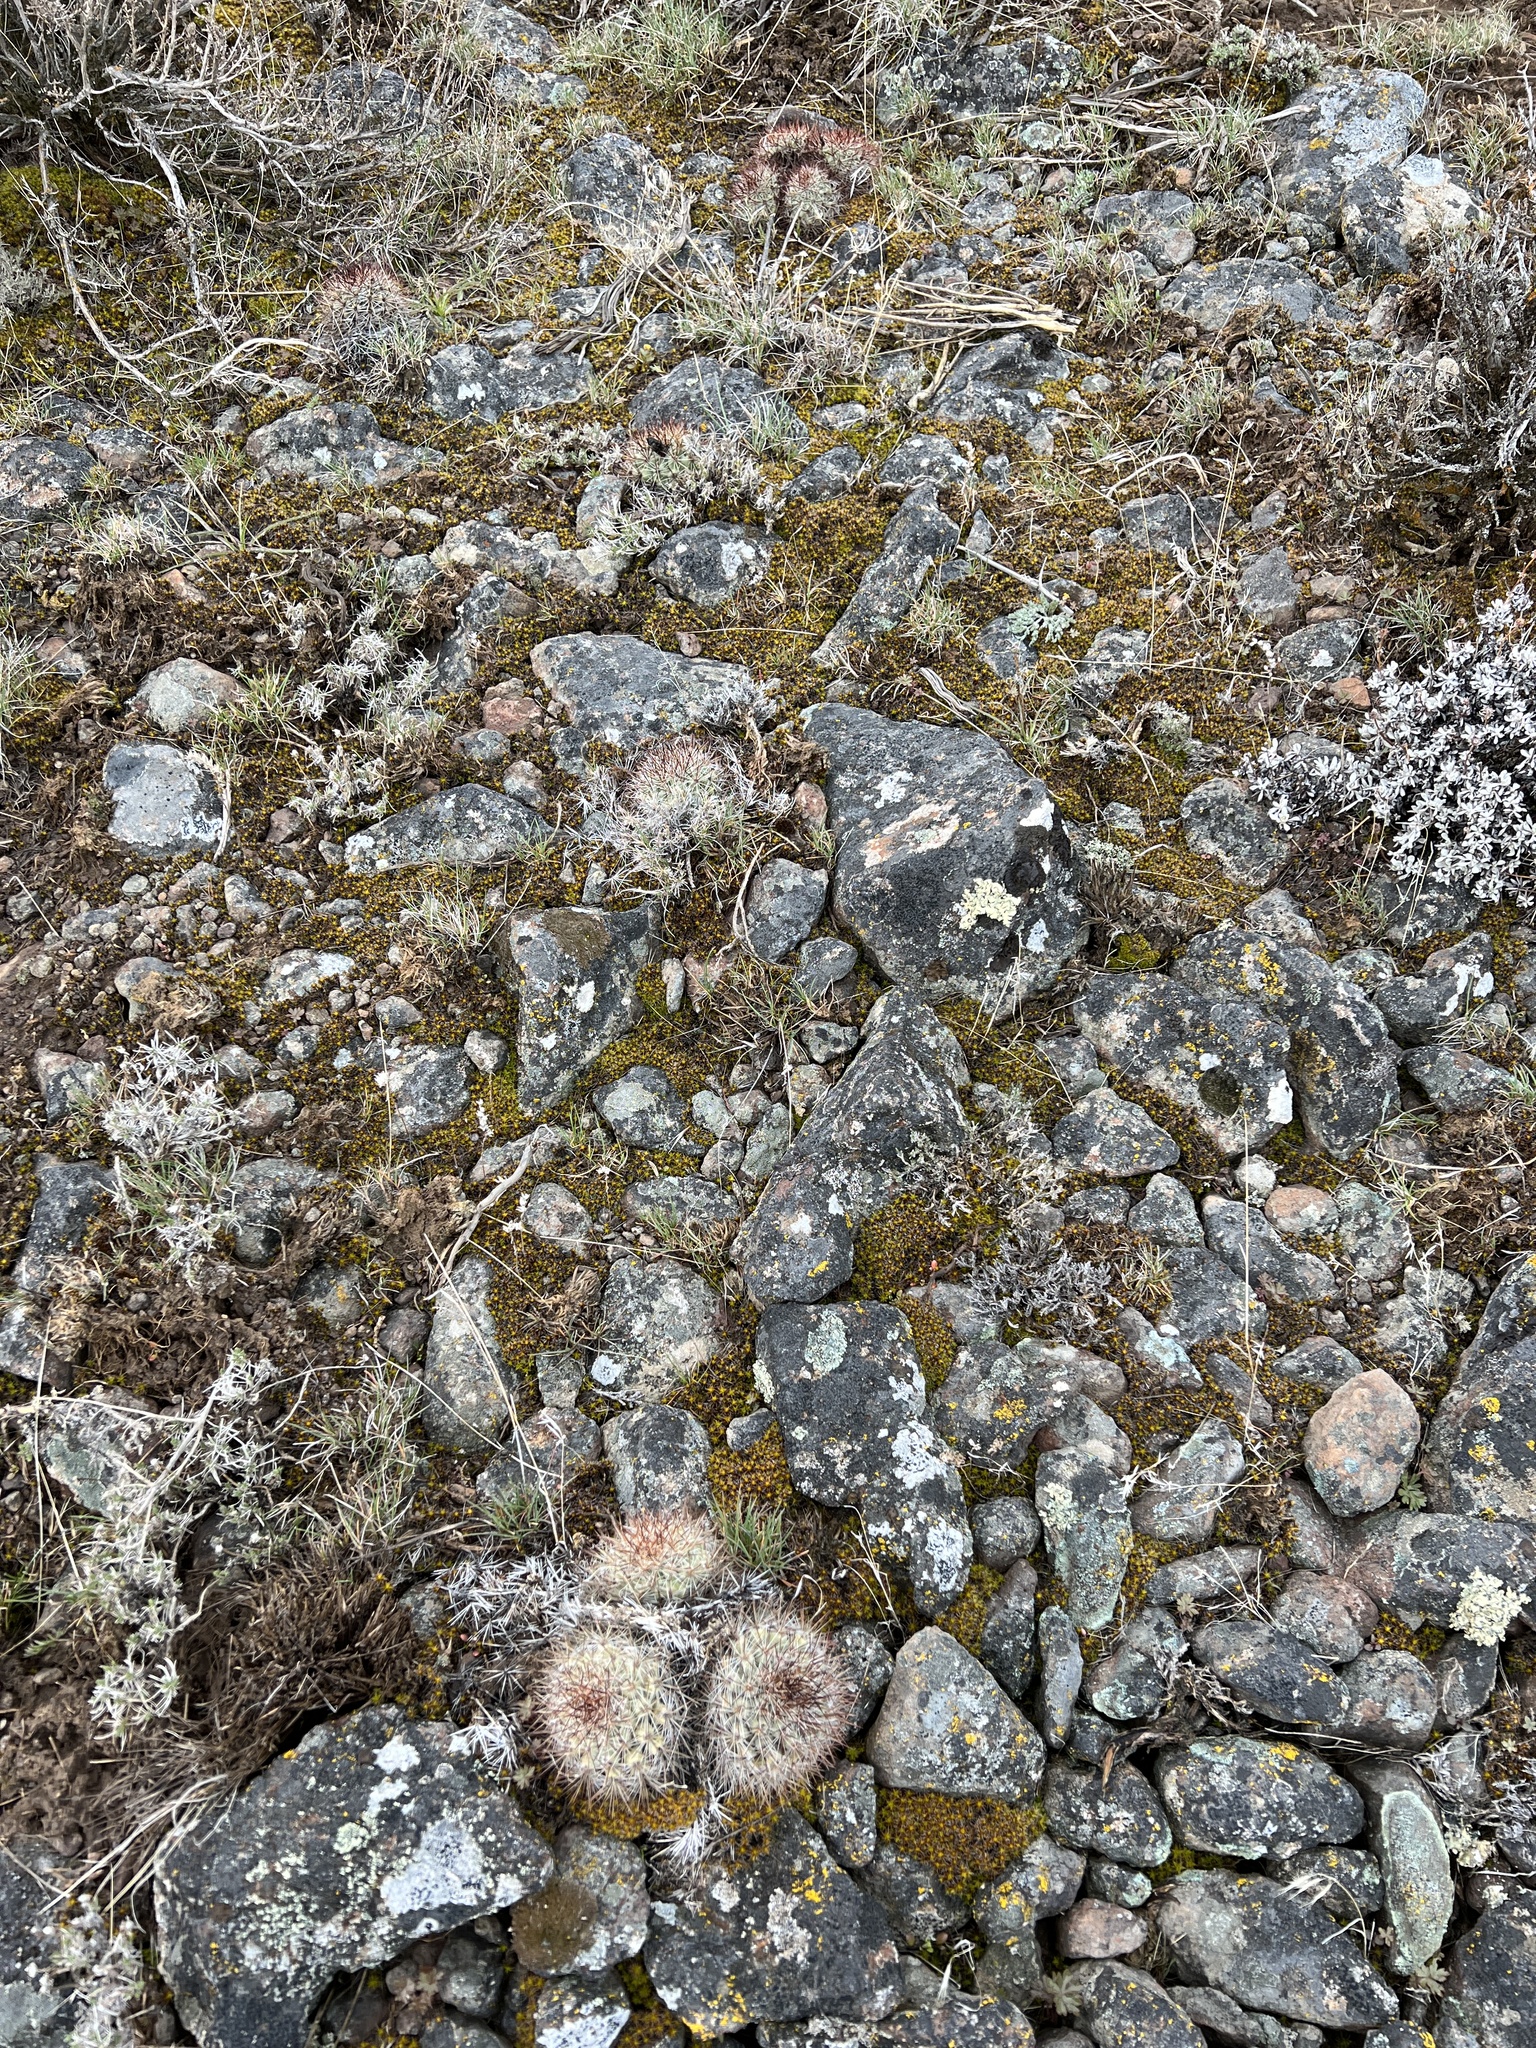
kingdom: Plantae
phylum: Tracheophyta
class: Magnoliopsida
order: Caryophyllales
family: Cactaceae
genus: Pediocactus
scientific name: Pediocactus nigrispinus
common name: Simpson's hedgehog cactus
